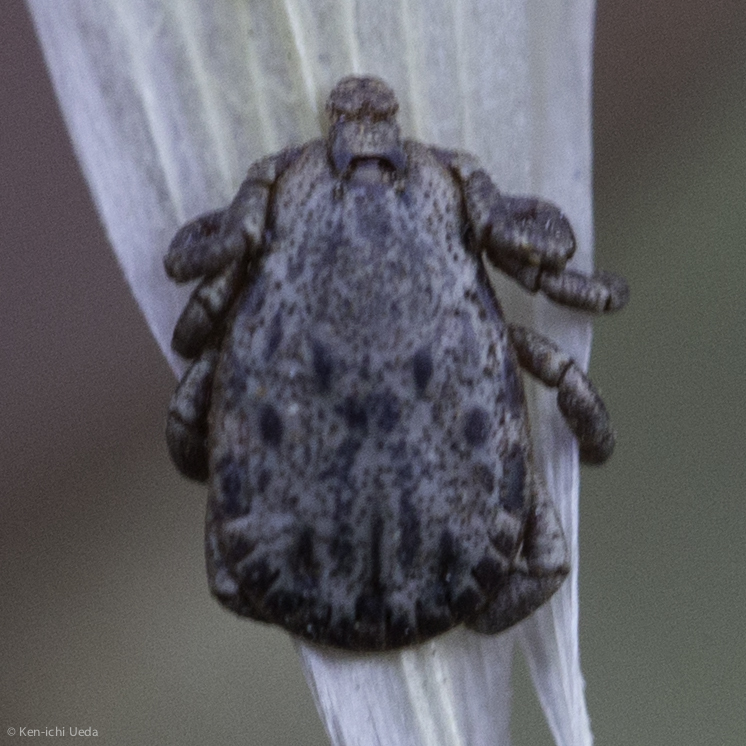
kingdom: Animalia
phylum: Arthropoda
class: Arachnida
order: Ixodida
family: Ixodidae
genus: Dermacentor
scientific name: Dermacentor occidentalis
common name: Net tick
